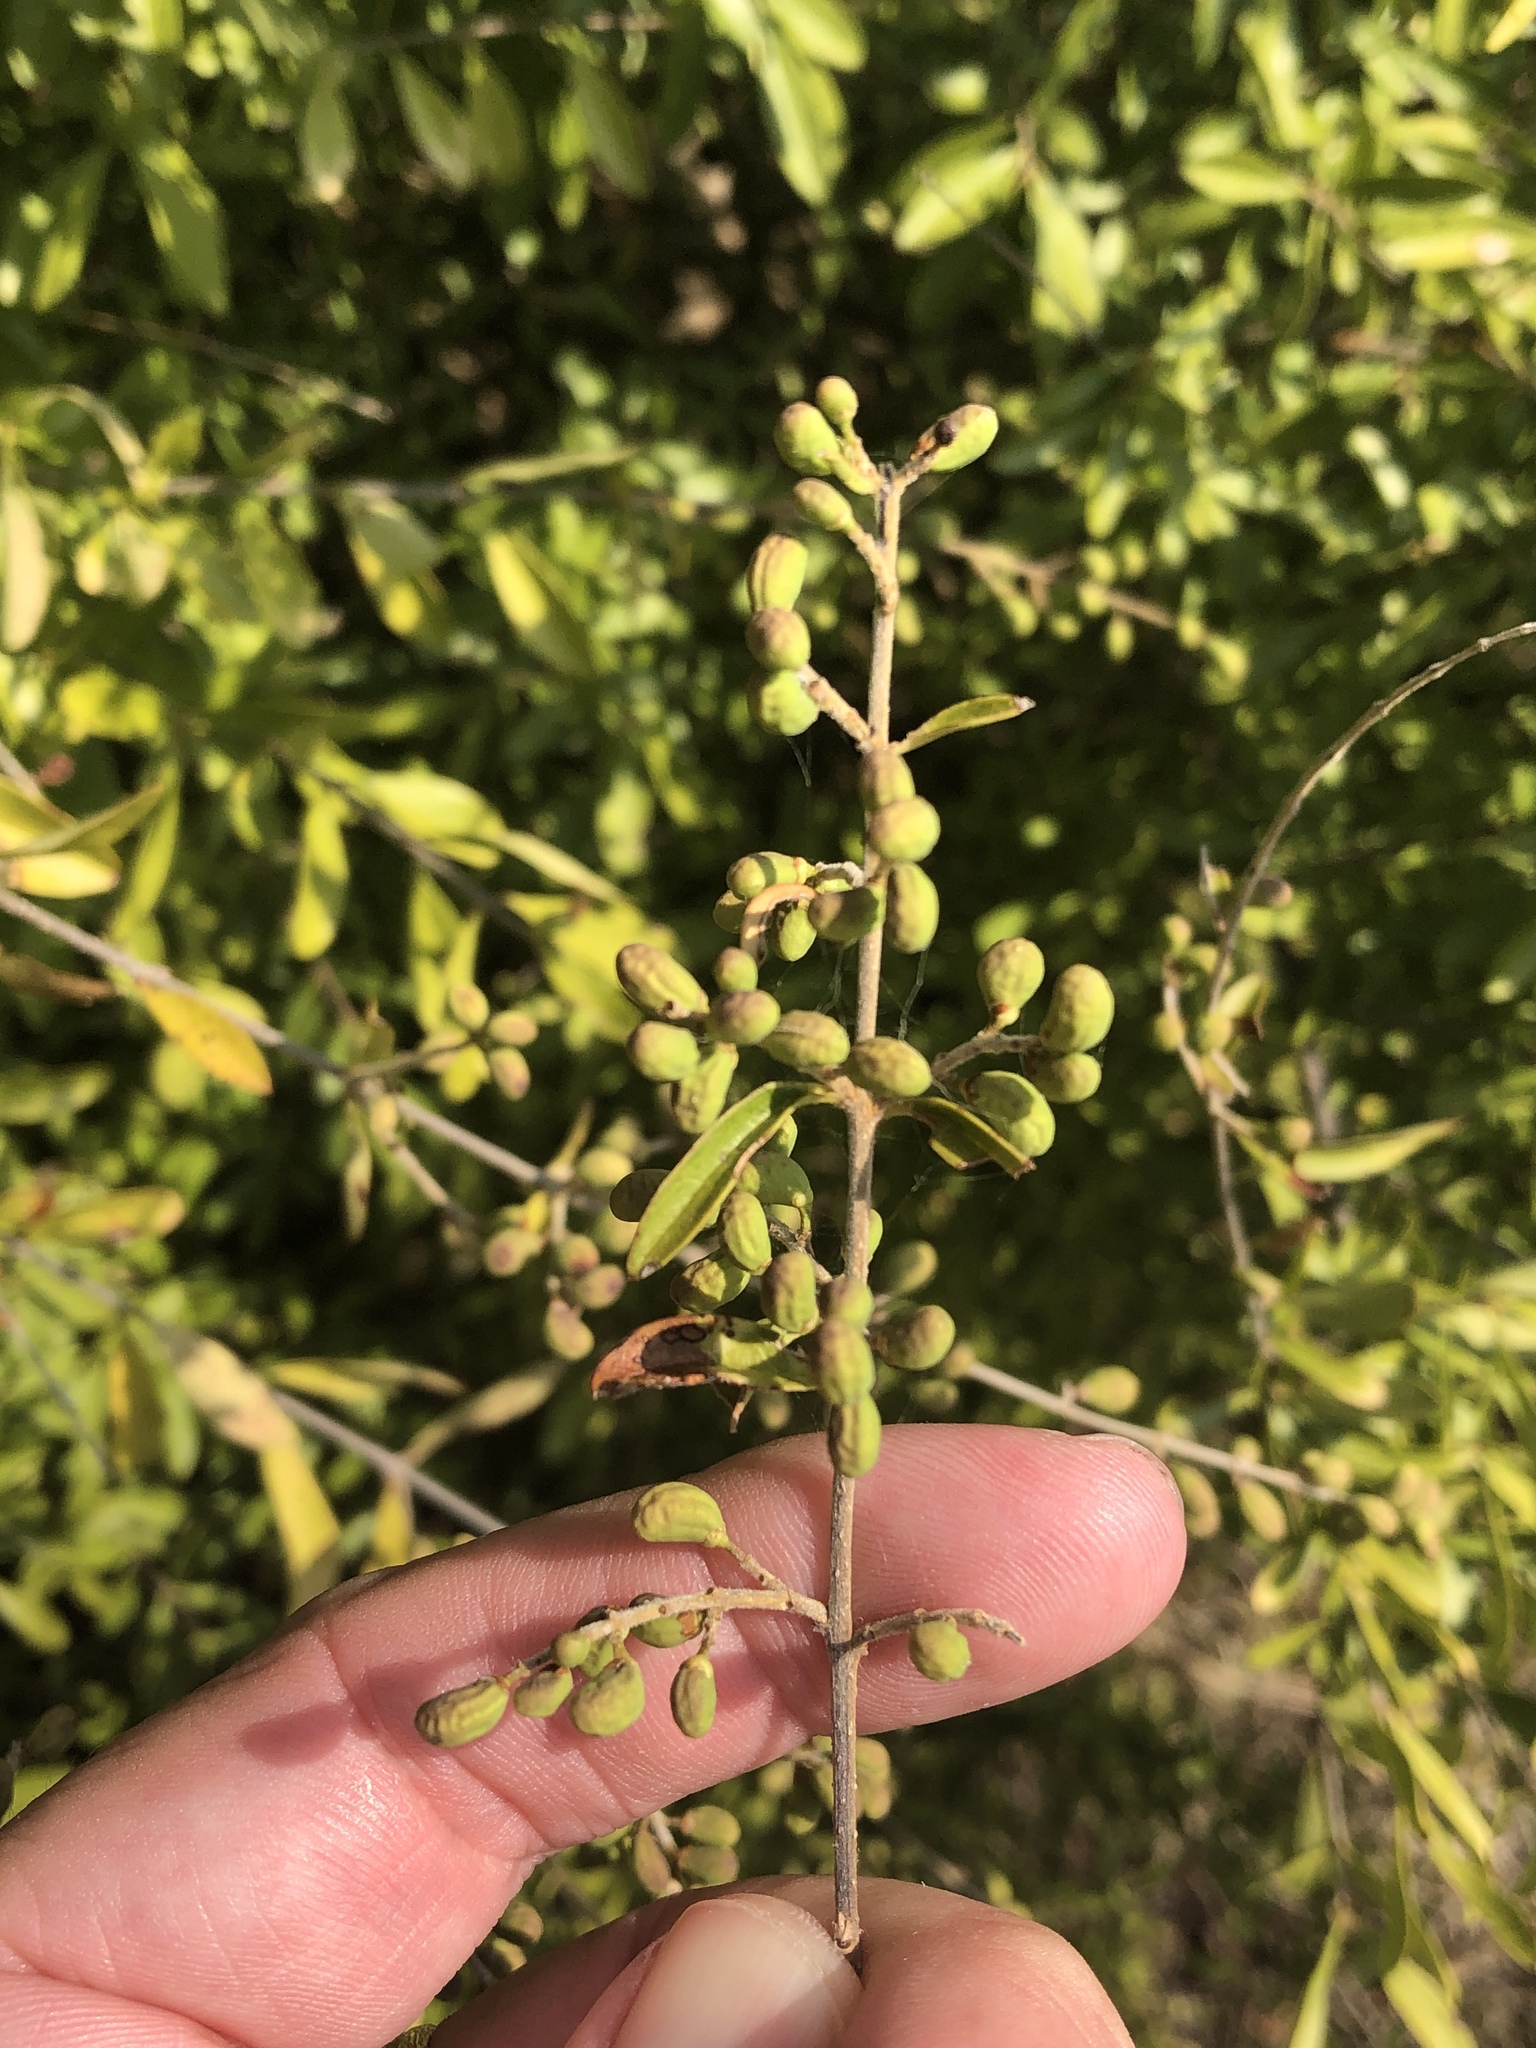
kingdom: Plantae
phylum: Tracheophyta
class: Magnoliopsida
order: Lamiales
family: Oleaceae
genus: Ligustrum
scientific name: Ligustrum quihoui
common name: Waxyleaf privet
